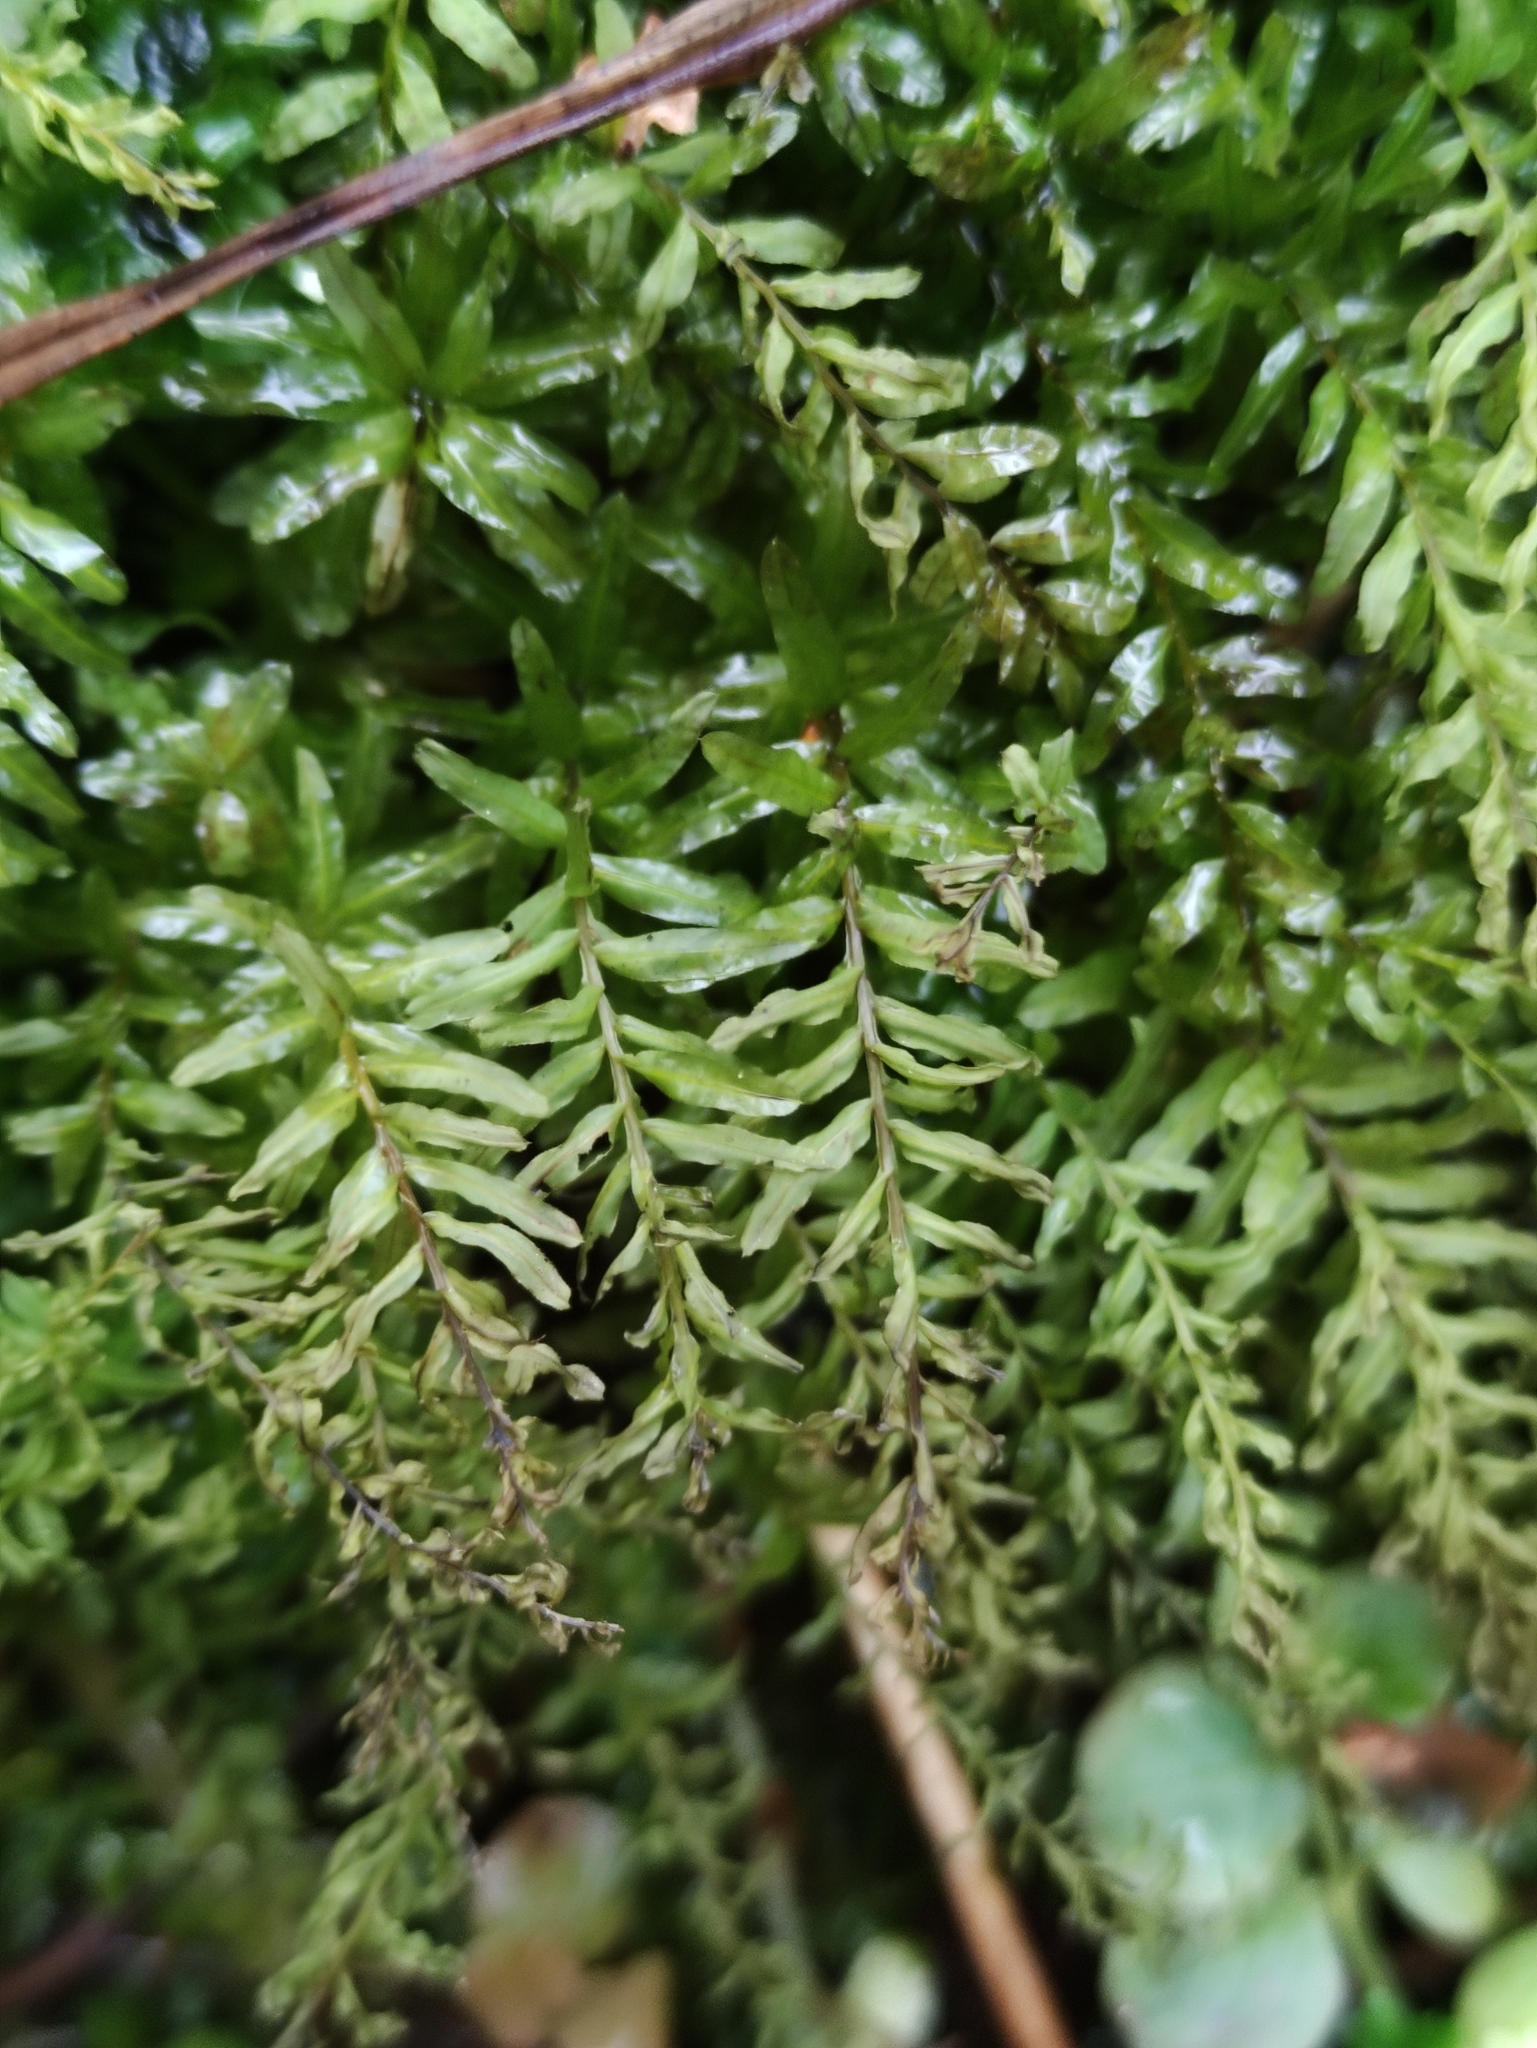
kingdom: Plantae
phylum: Bryophyta
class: Bryopsida
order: Bryales
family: Mniaceae
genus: Plagiomnium
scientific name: Plagiomnium undulatum
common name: Hart's-tongue thyme-moss
